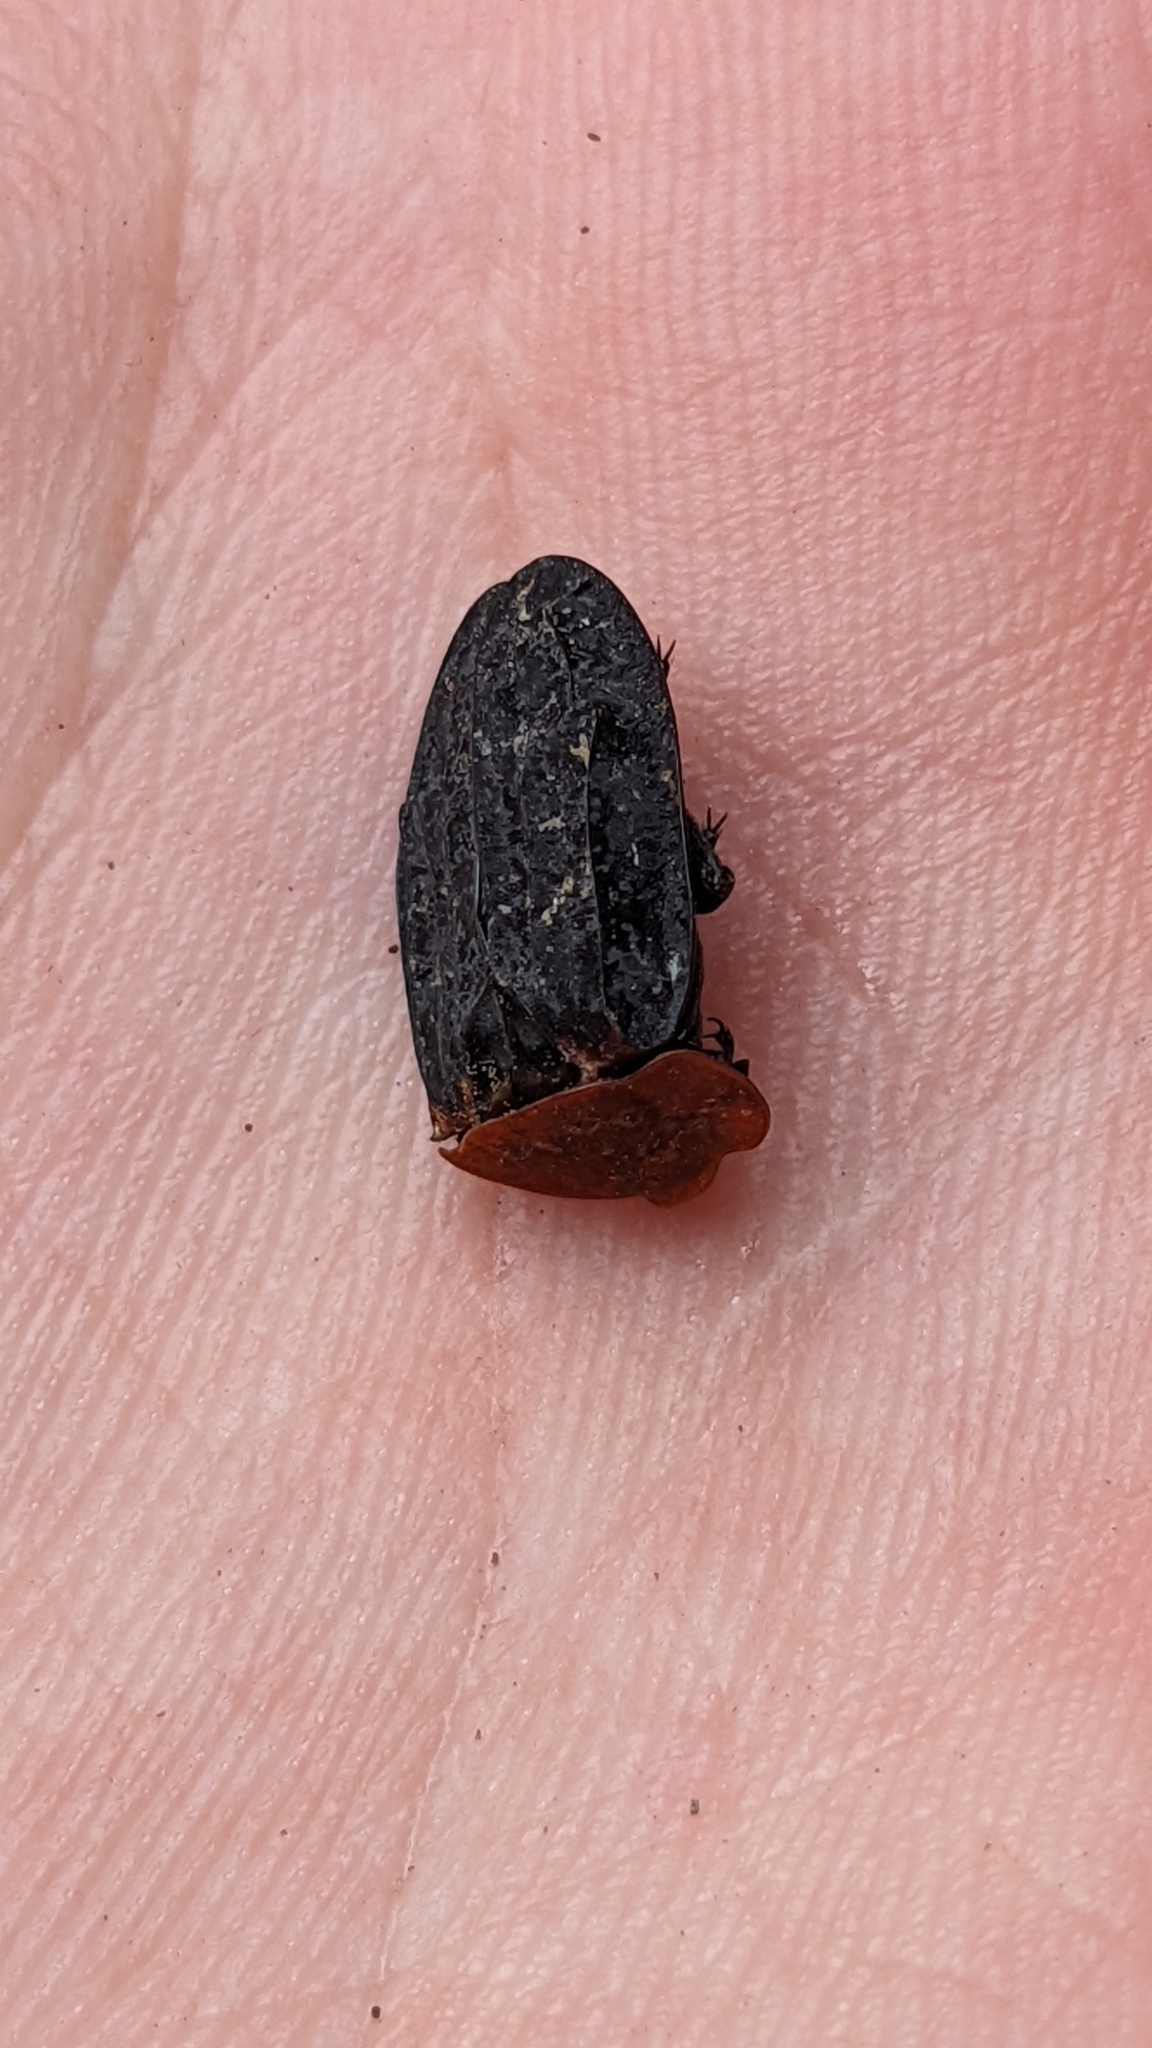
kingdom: Animalia
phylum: Arthropoda
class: Insecta
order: Coleoptera
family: Staphylinidae
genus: Oiceoptoma
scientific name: Oiceoptoma thoracicum
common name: Red-breasted carrion beetle
